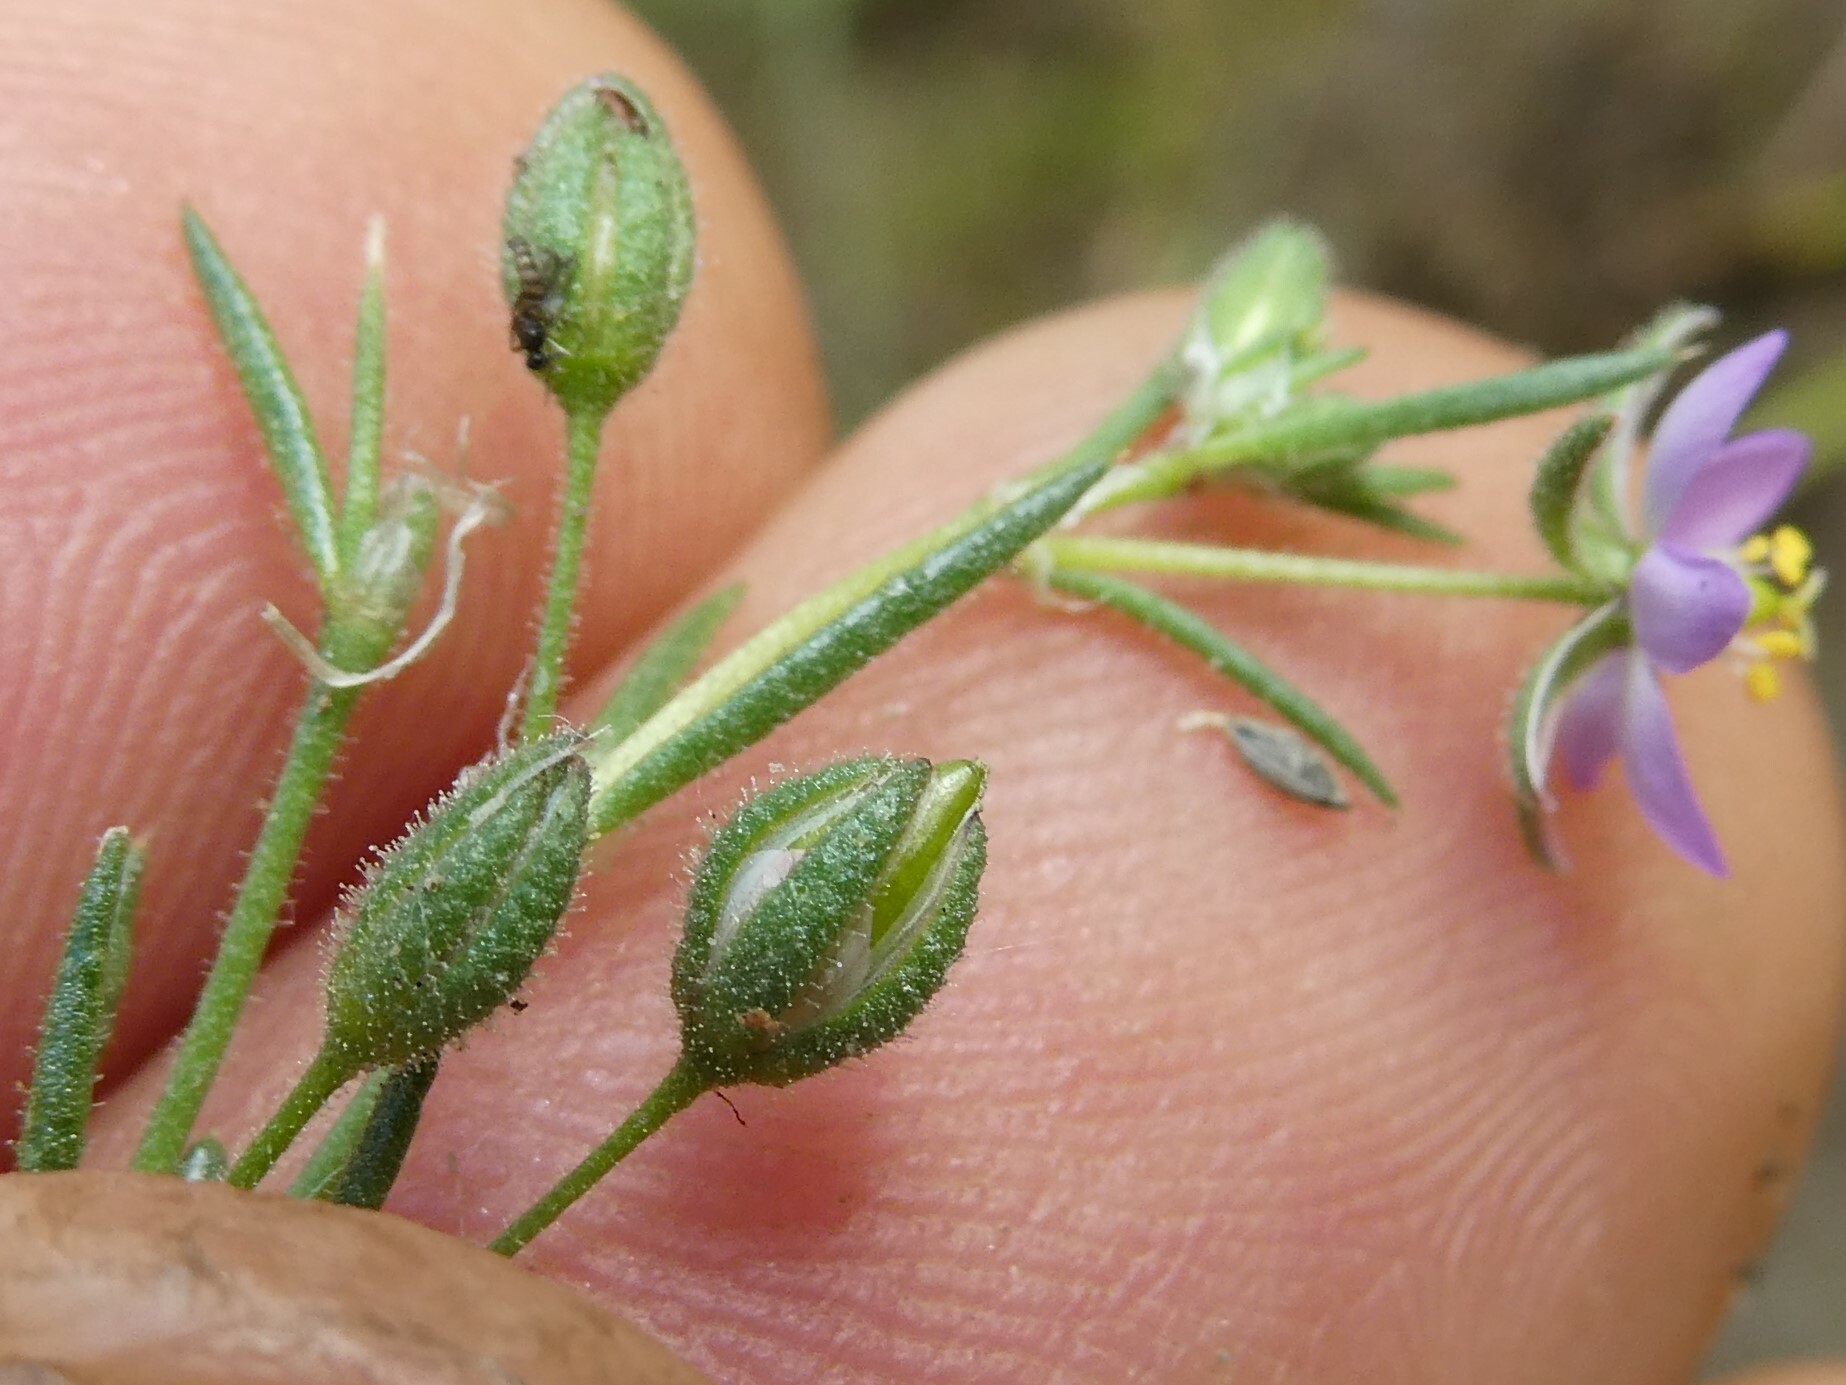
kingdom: Plantae
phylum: Tracheophyta
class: Magnoliopsida
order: Caryophyllales
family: Caryophyllaceae
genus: Spergularia
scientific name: Spergularia rubra
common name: Red sand-spurrey
